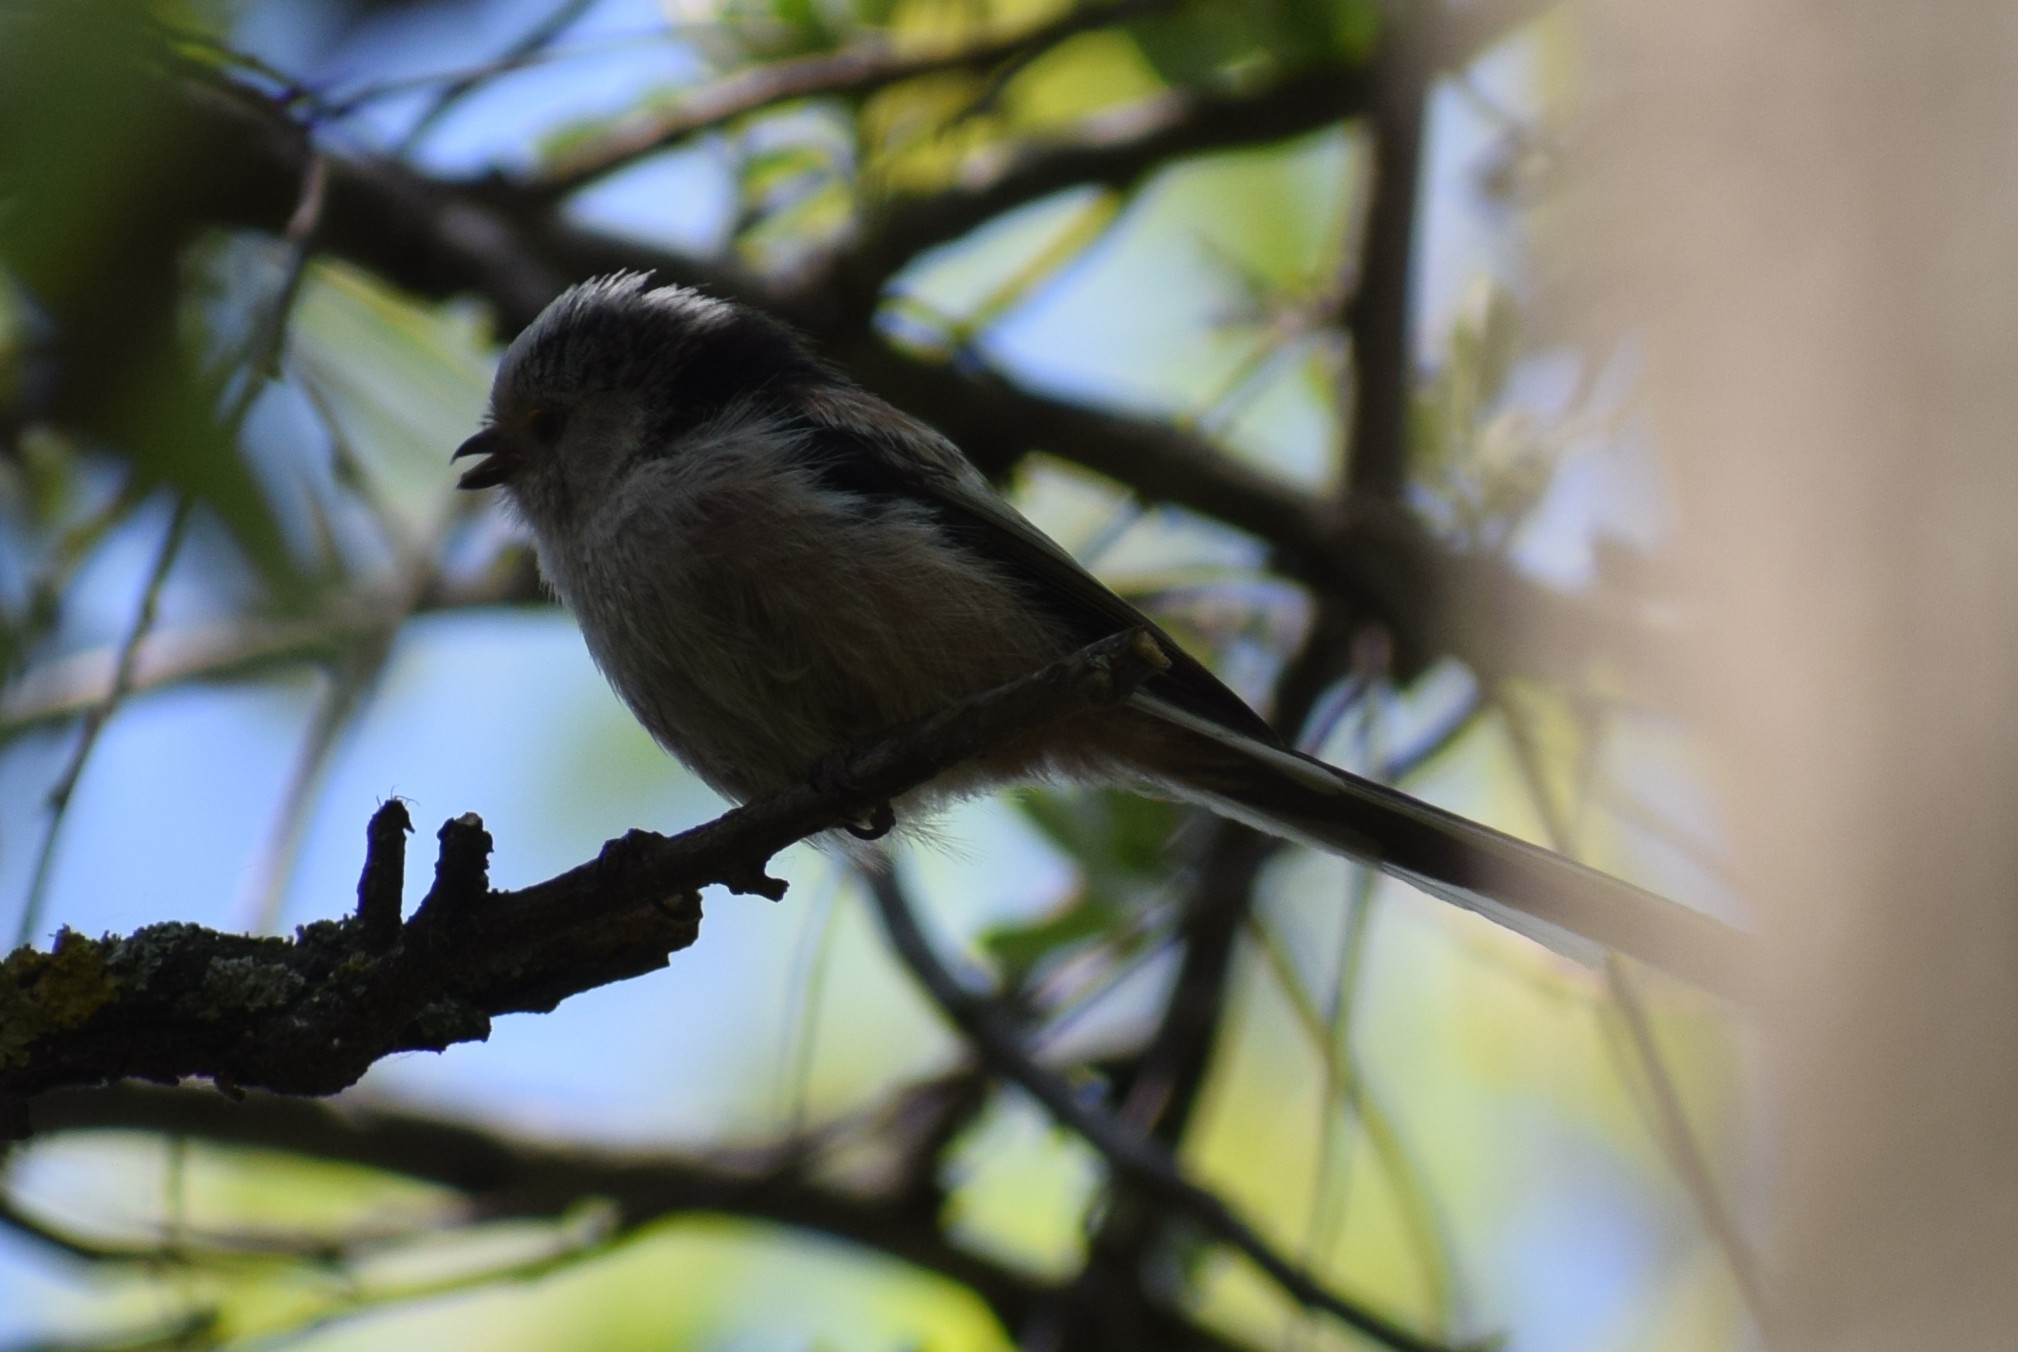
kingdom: Animalia
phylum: Chordata
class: Aves
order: Passeriformes
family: Aegithalidae
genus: Aegithalos
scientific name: Aegithalos caudatus
